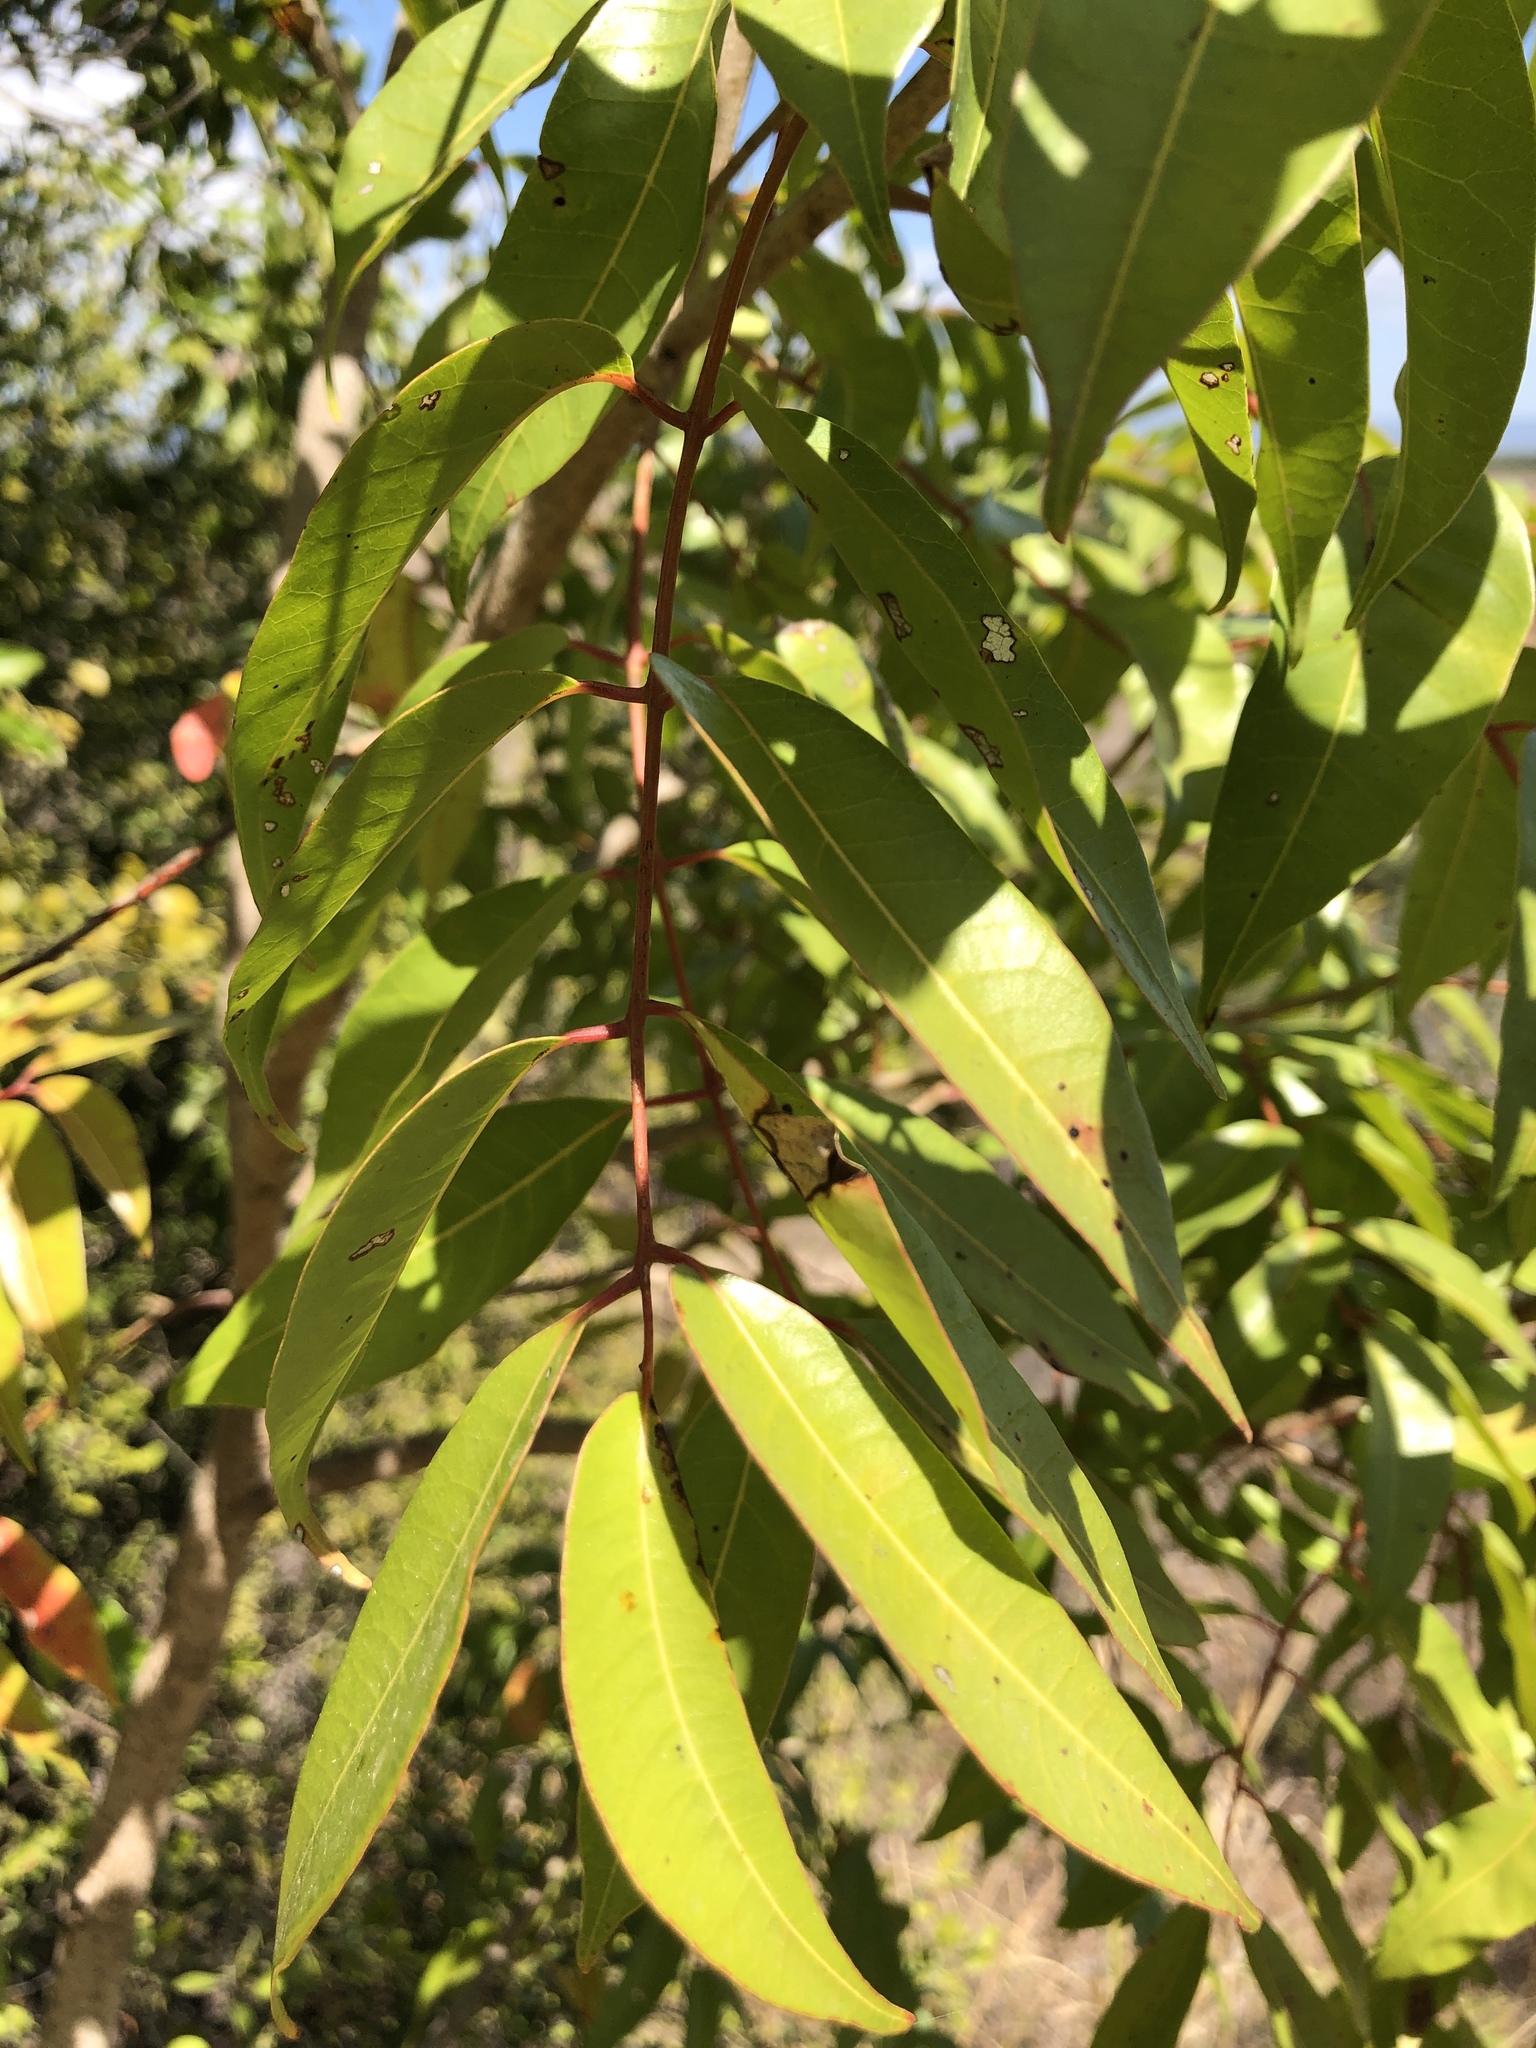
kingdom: Plantae
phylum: Tracheophyta
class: Magnoliopsida
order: Sapindales
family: Anacardiaceae
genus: Euroschinus
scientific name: Euroschinus falcatus
